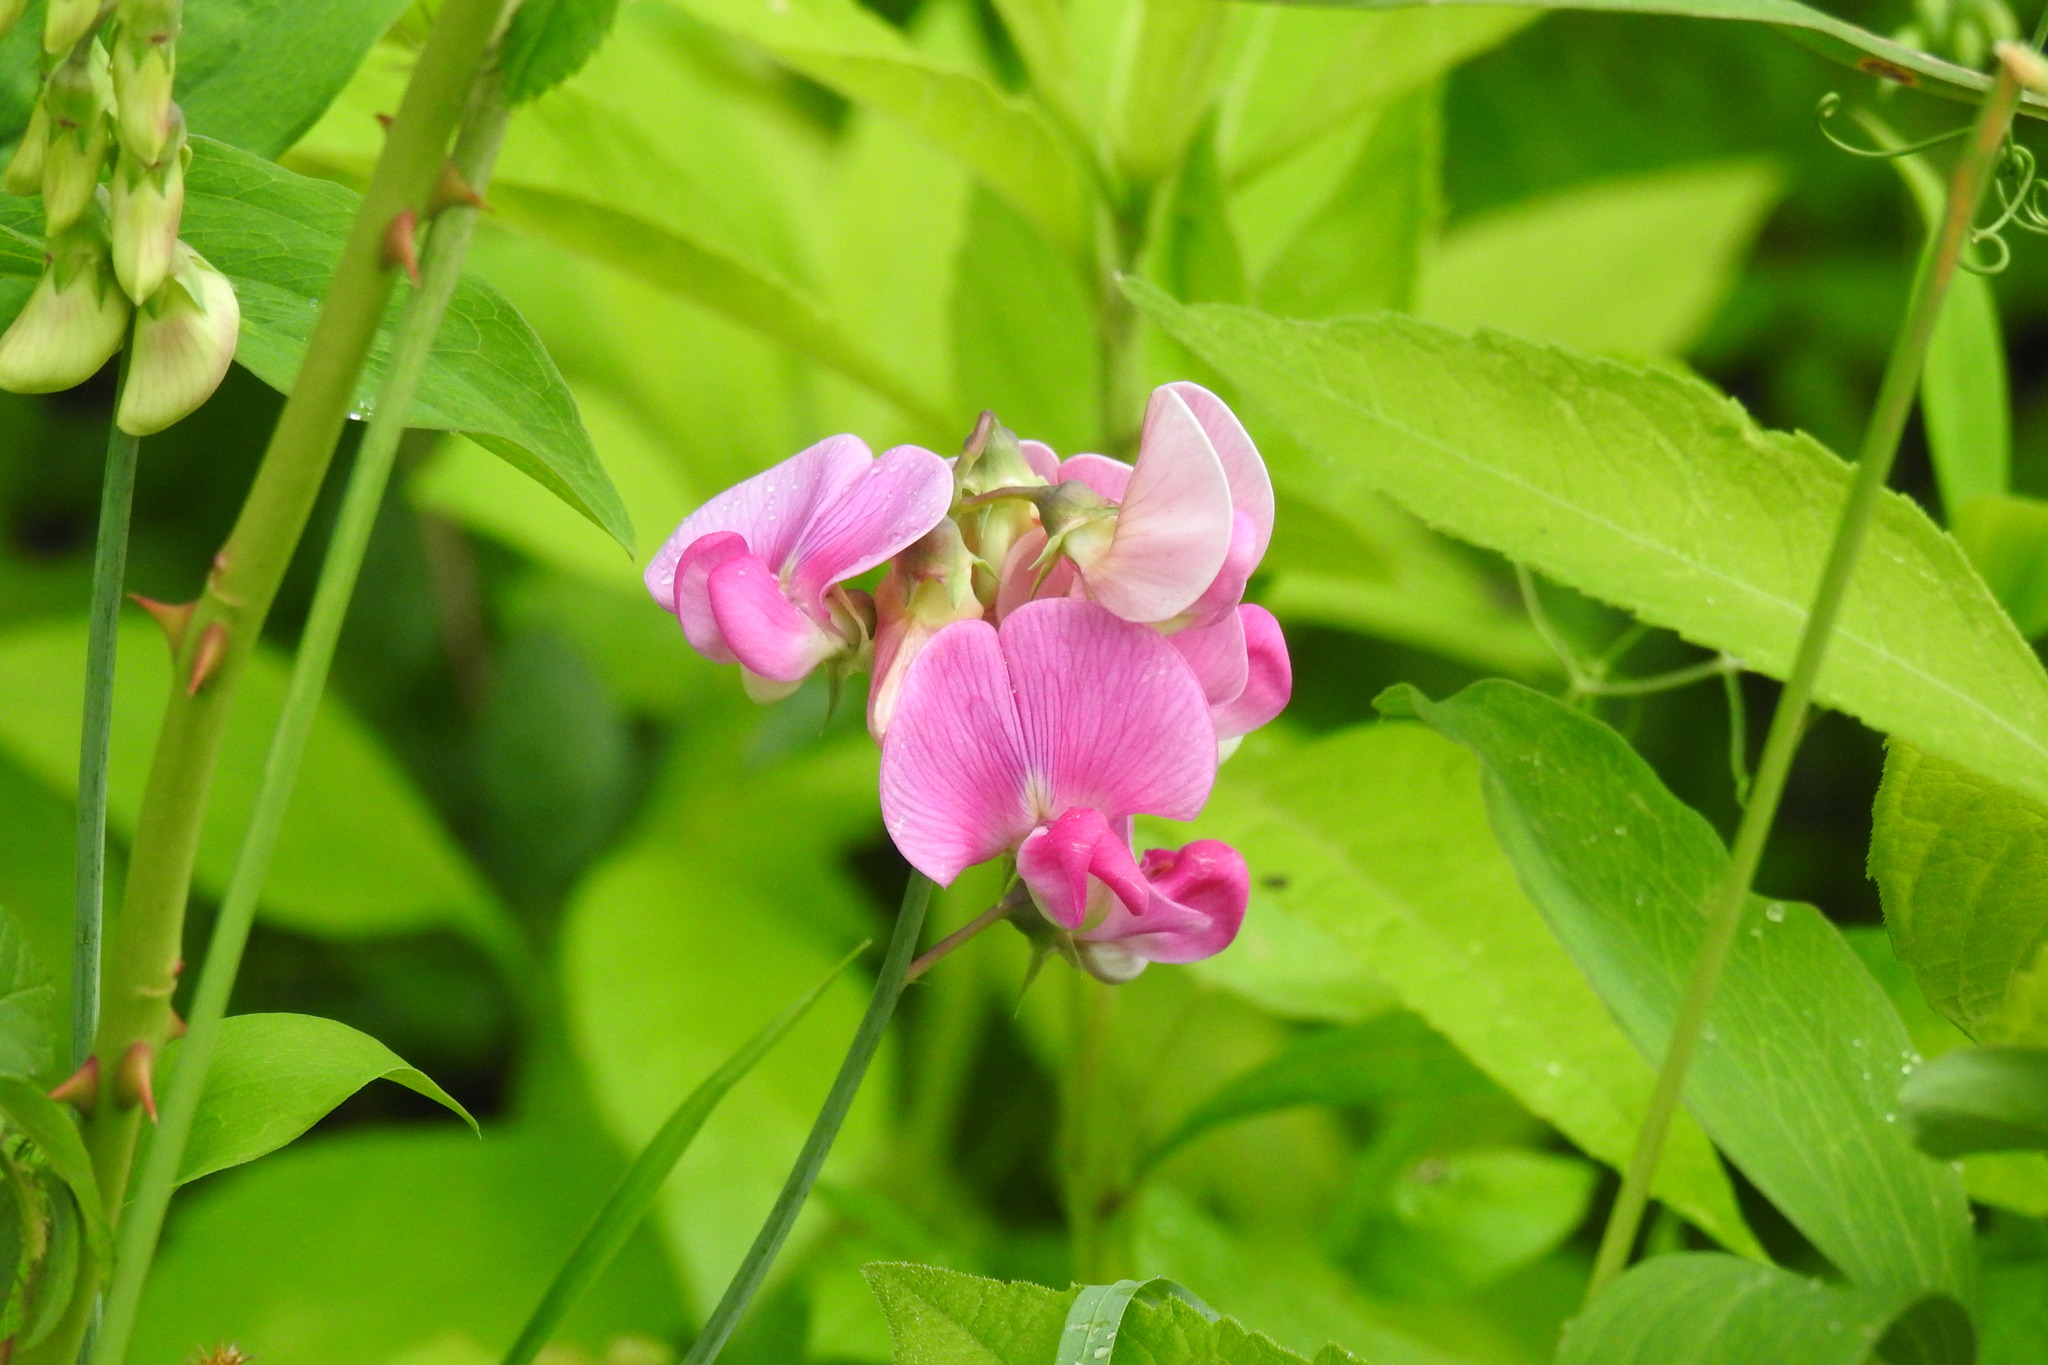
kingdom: Plantae
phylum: Tracheophyta
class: Magnoliopsida
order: Fabales
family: Fabaceae
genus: Lathyrus
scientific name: Lathyrus latifolius
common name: Perennial pea
